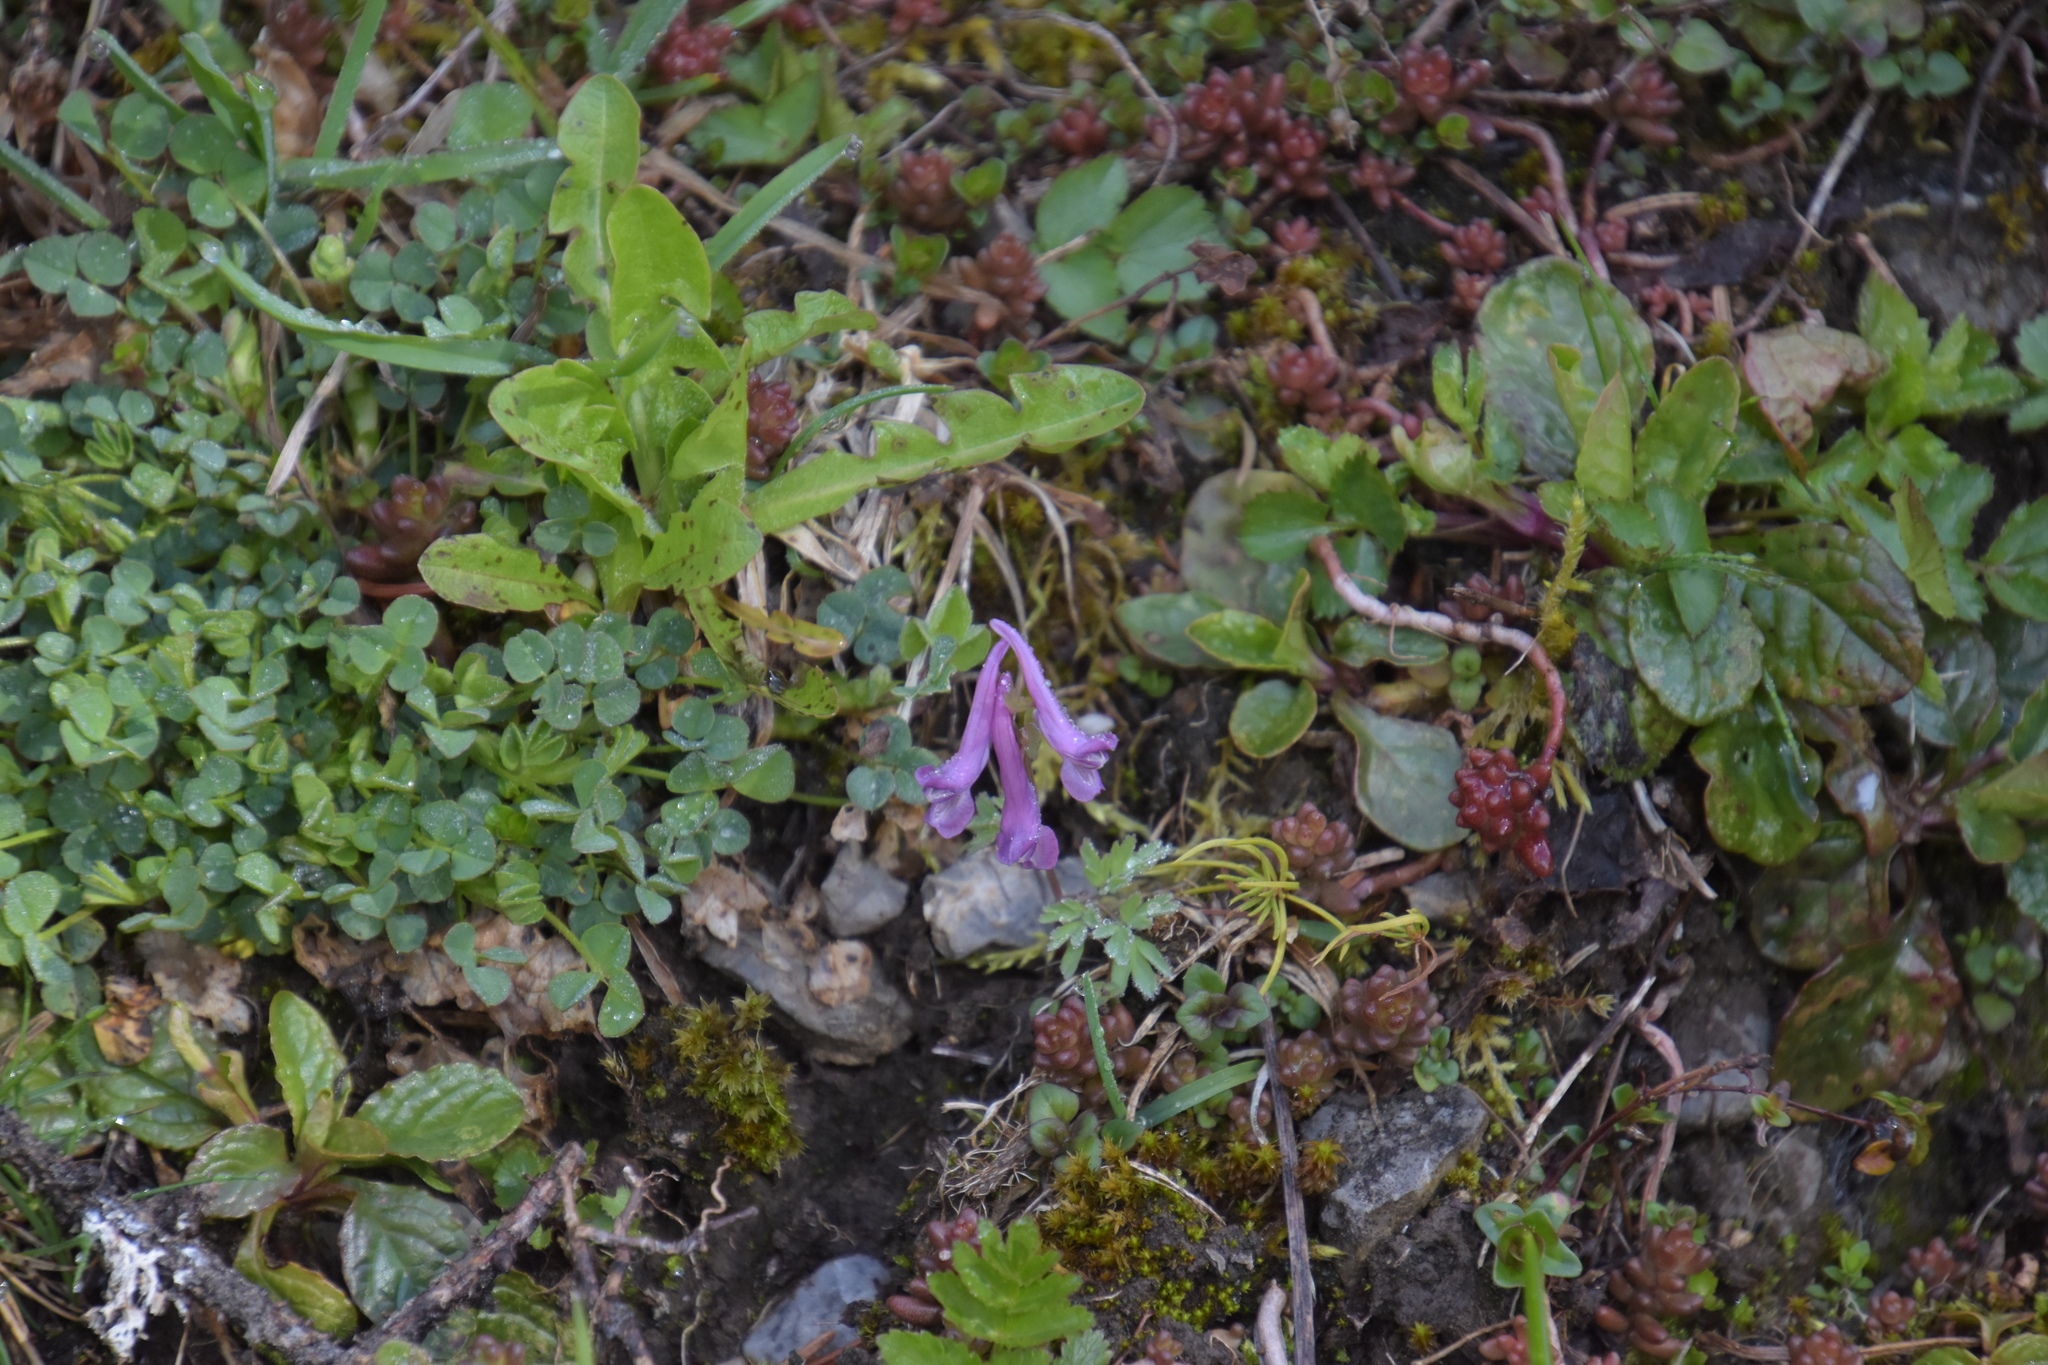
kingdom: Plantae
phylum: Tracheophyta
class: Magnoliopsida
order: Ranunculales
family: Papaveraceae
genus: Corydalis
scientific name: Corydalis solida
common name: Bird-in-a-bush
